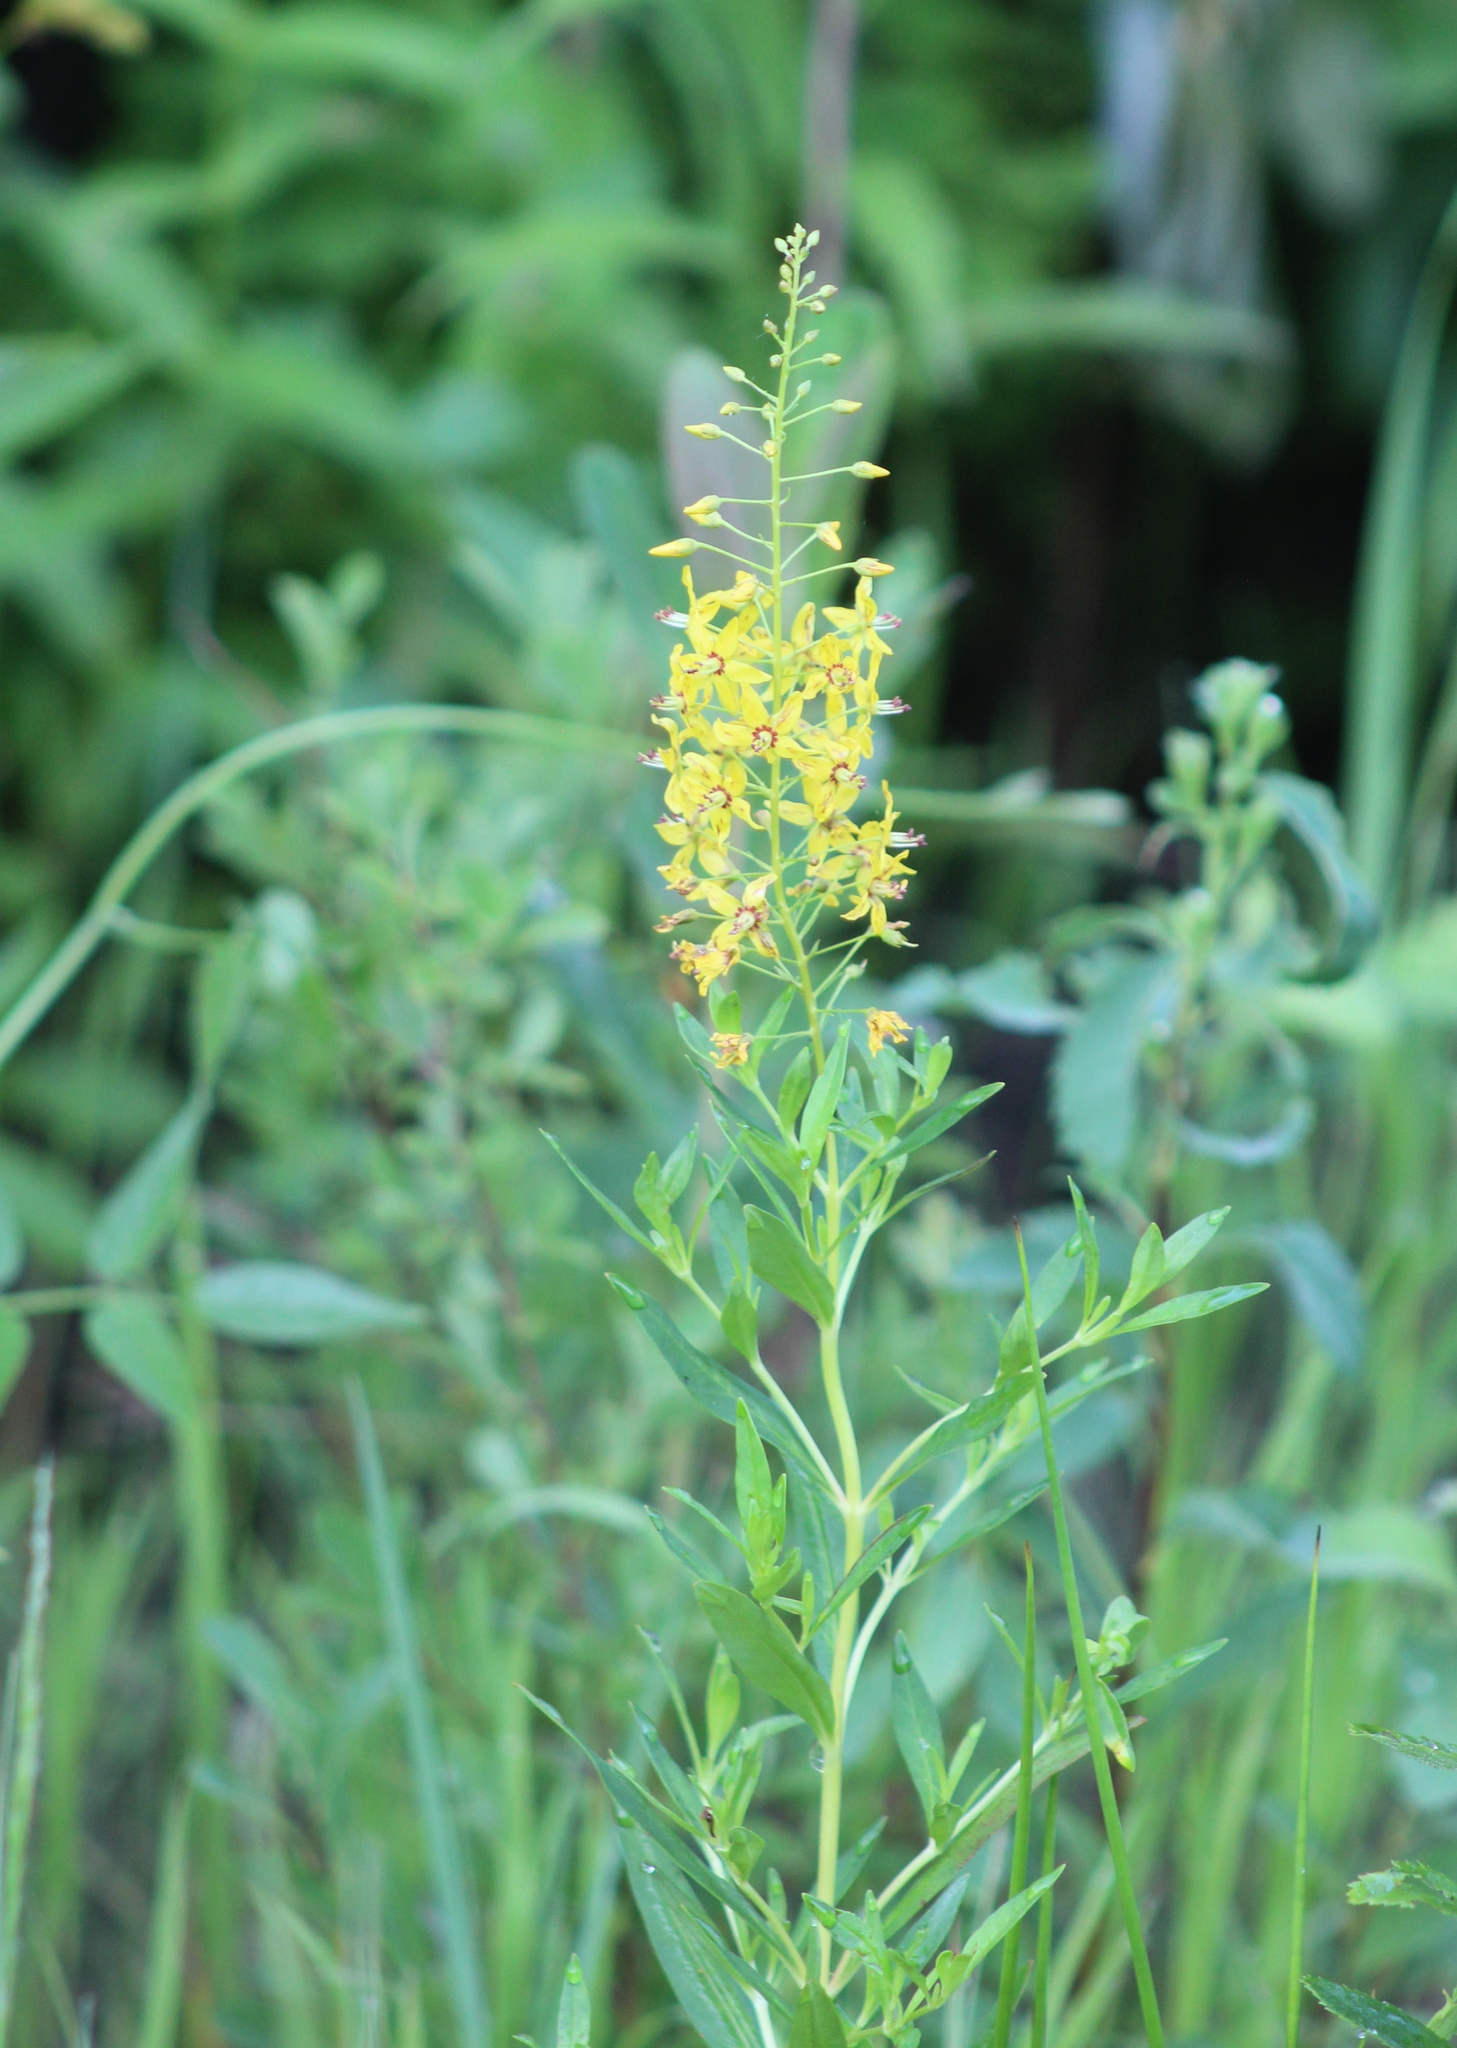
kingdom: Plantae
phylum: Tracheophyta
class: Magnoliopsida
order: Ericales
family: Primulaceae
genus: Lysimachia
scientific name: Lysimachia terrestris
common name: Lake loosestrife
